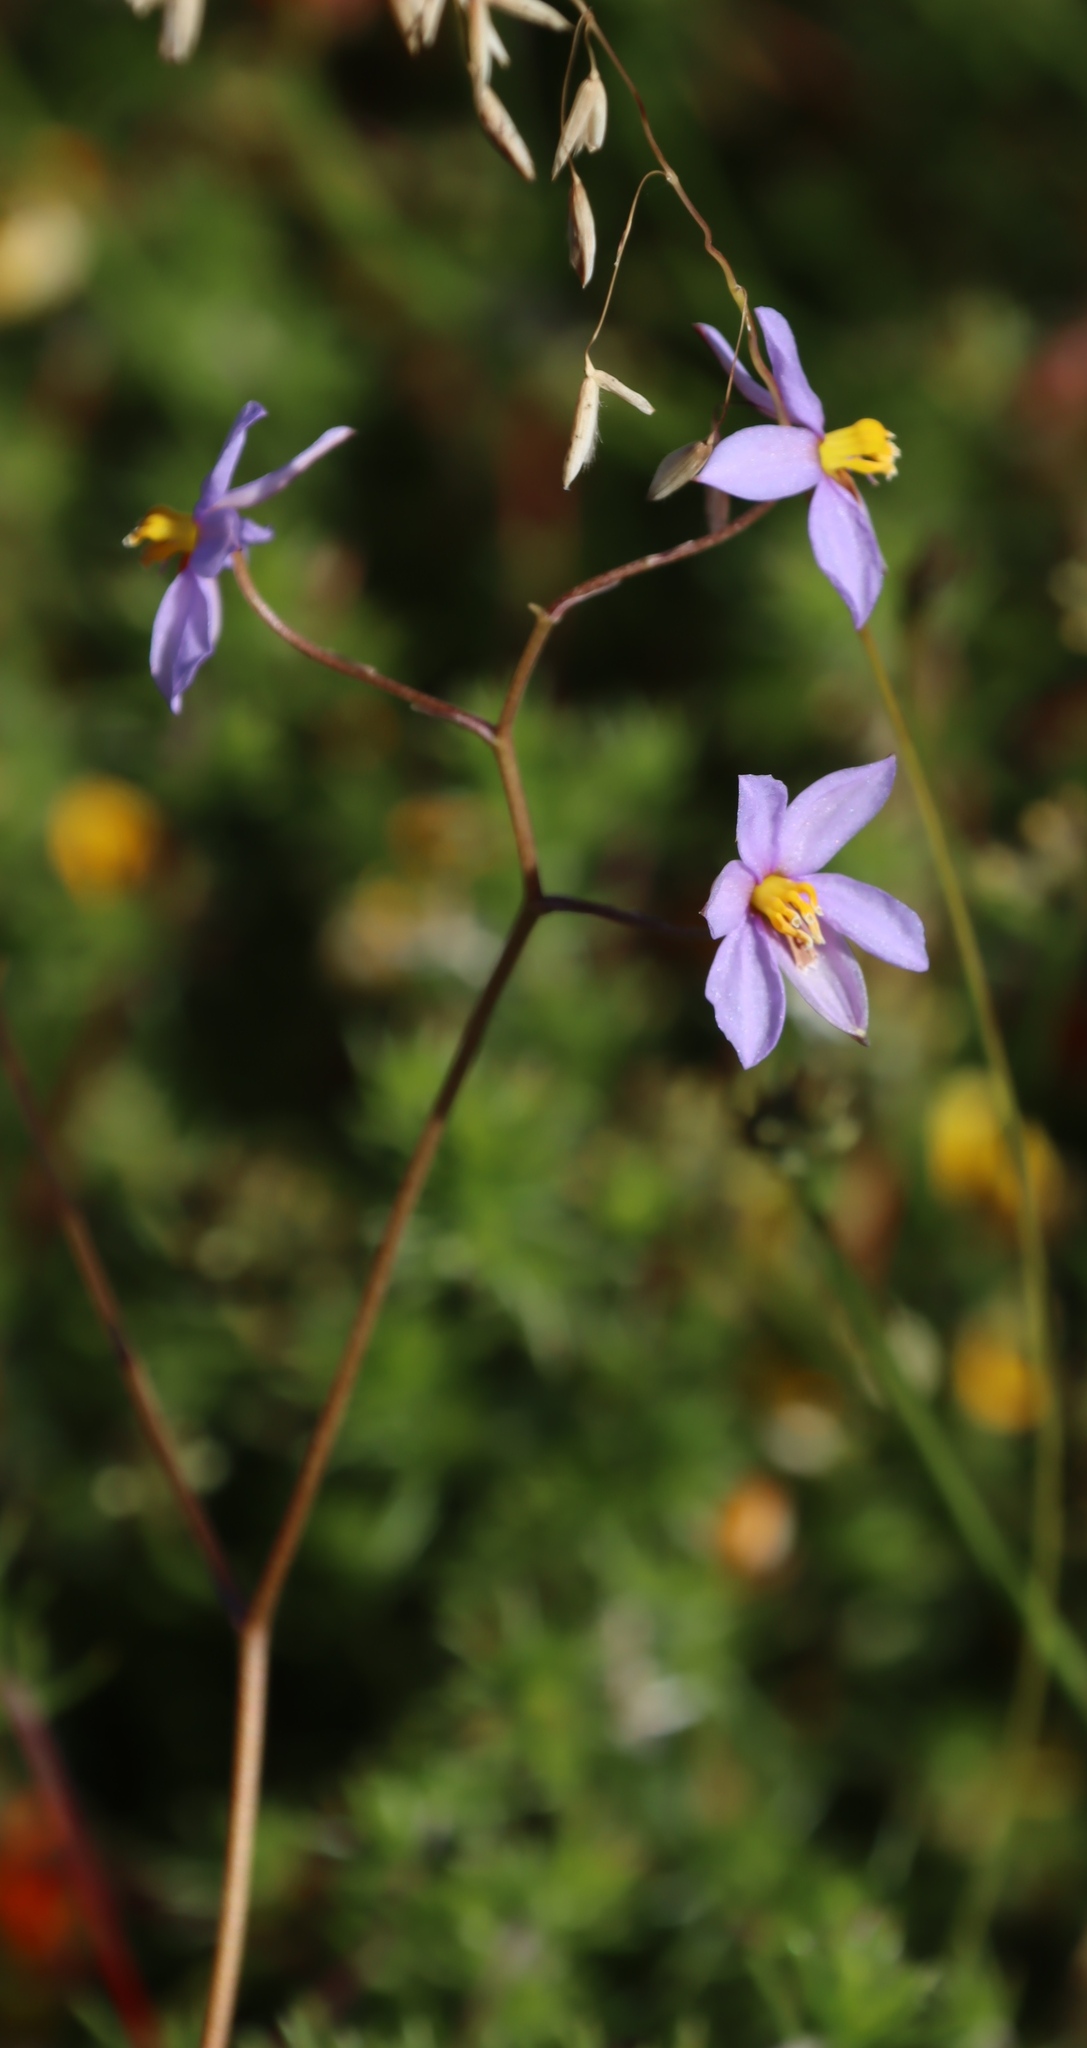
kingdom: Plantae
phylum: Tracheophyta
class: Liliopsida
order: Asparagales
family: Tecophilaeaceae
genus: Cyanella
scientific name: Cyanella hyacinthoides
